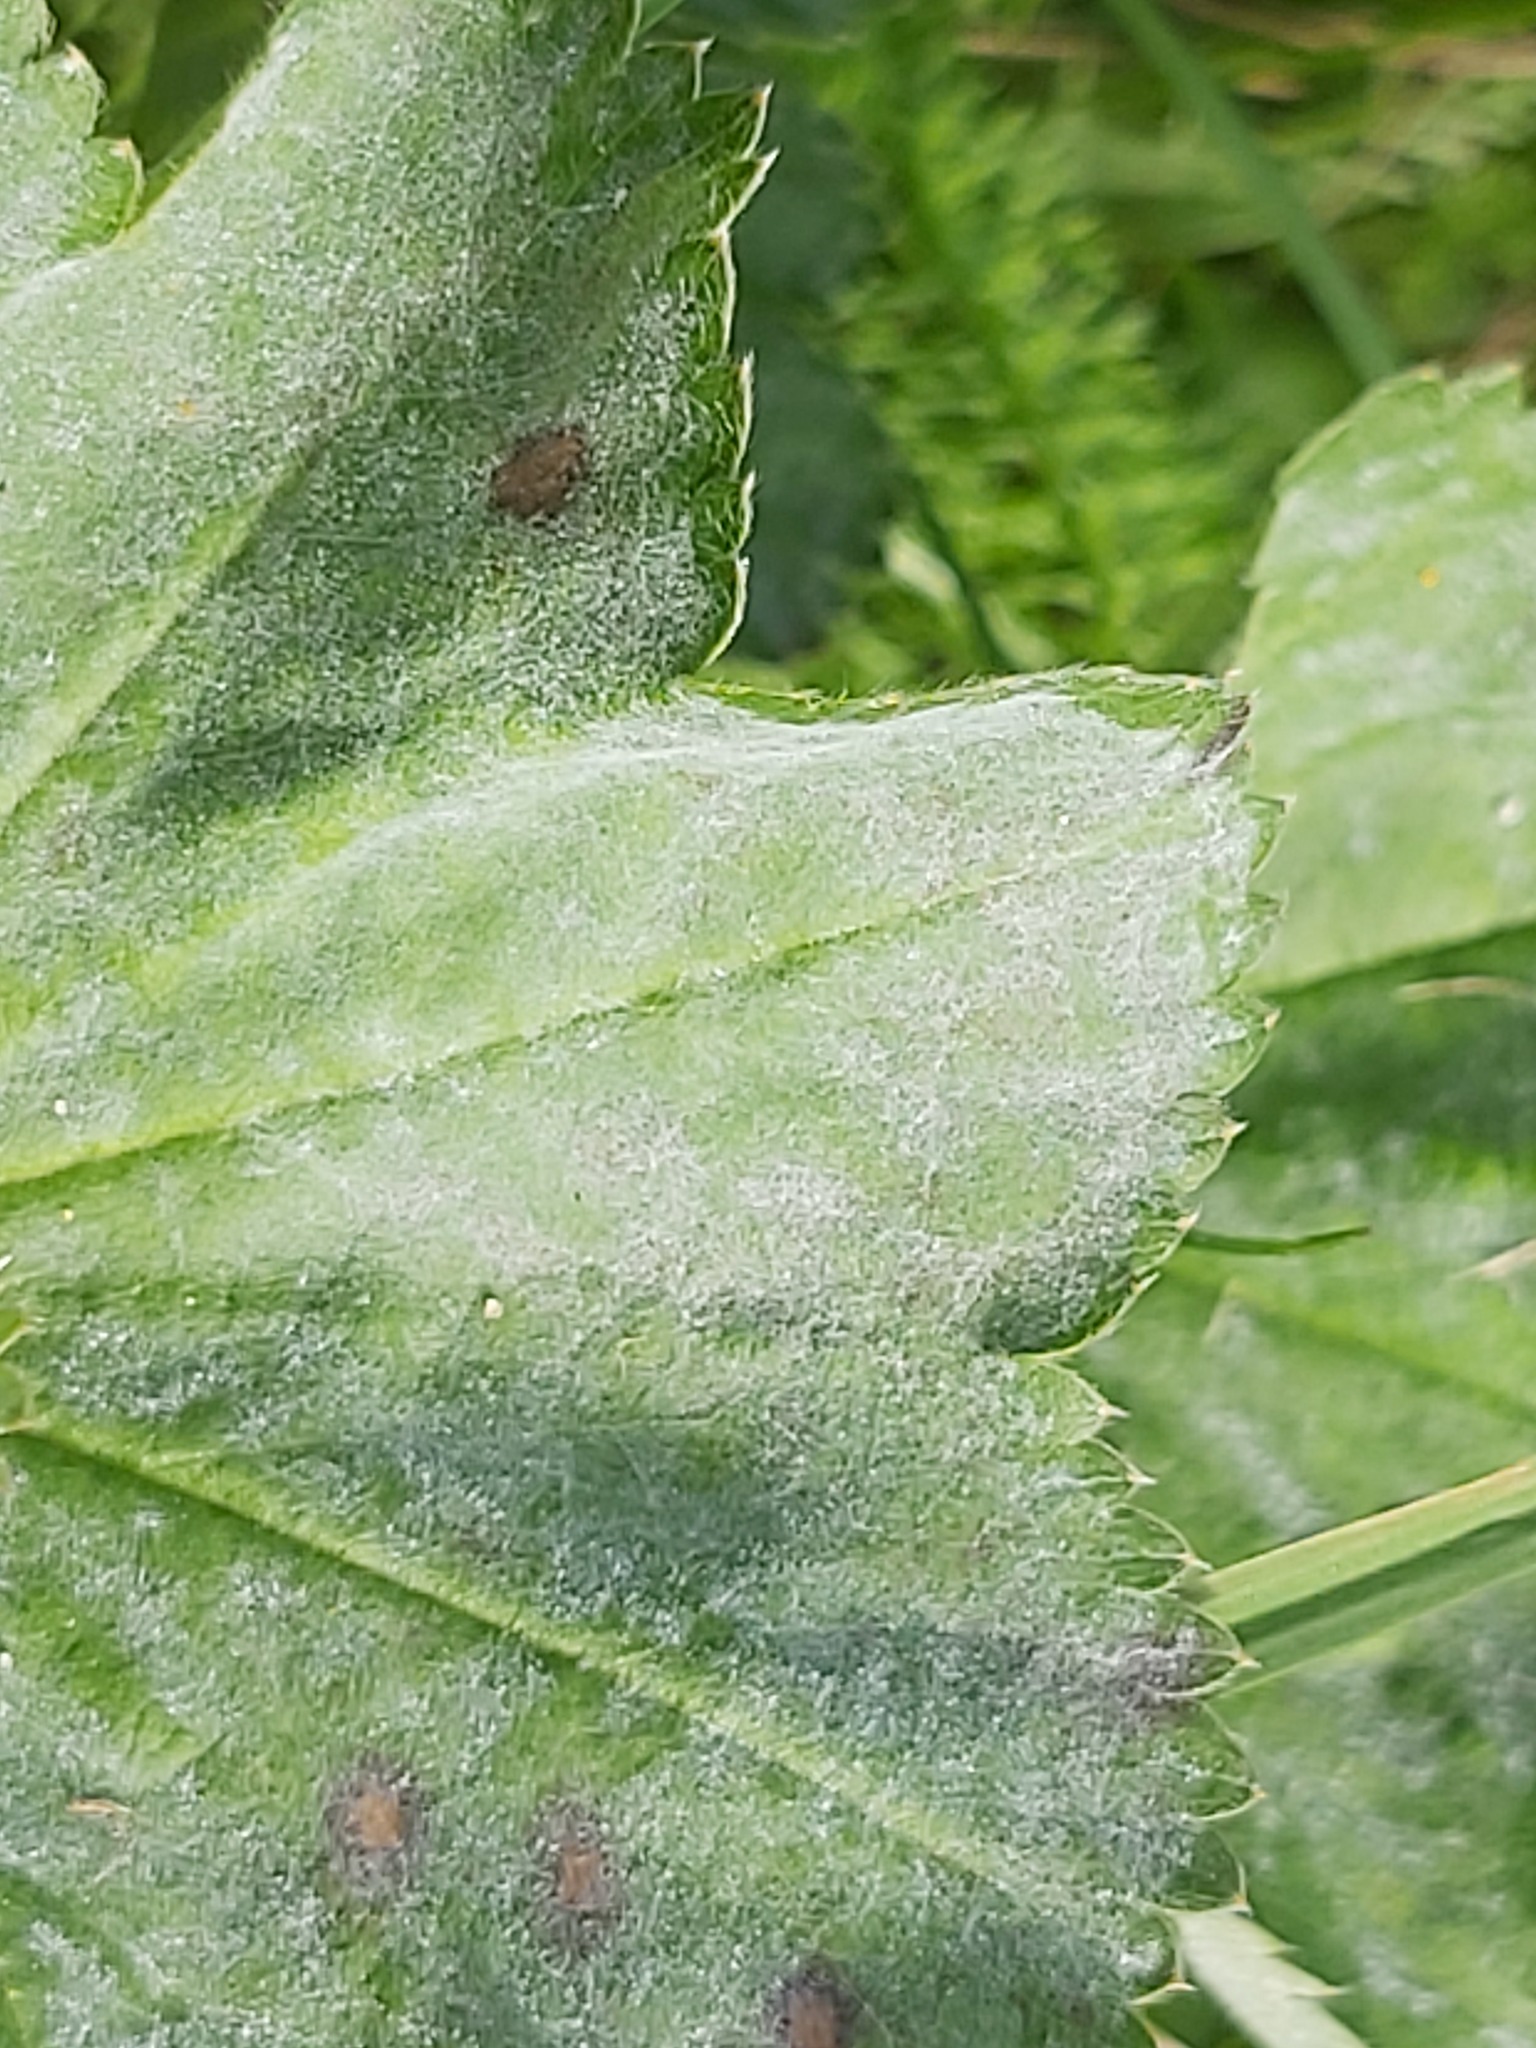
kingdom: Fungi
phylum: Ascomycota
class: Leotiomycetes
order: Helotiales
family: Erysiphaceae
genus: Podosphaera
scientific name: Podosphaera aphanis
